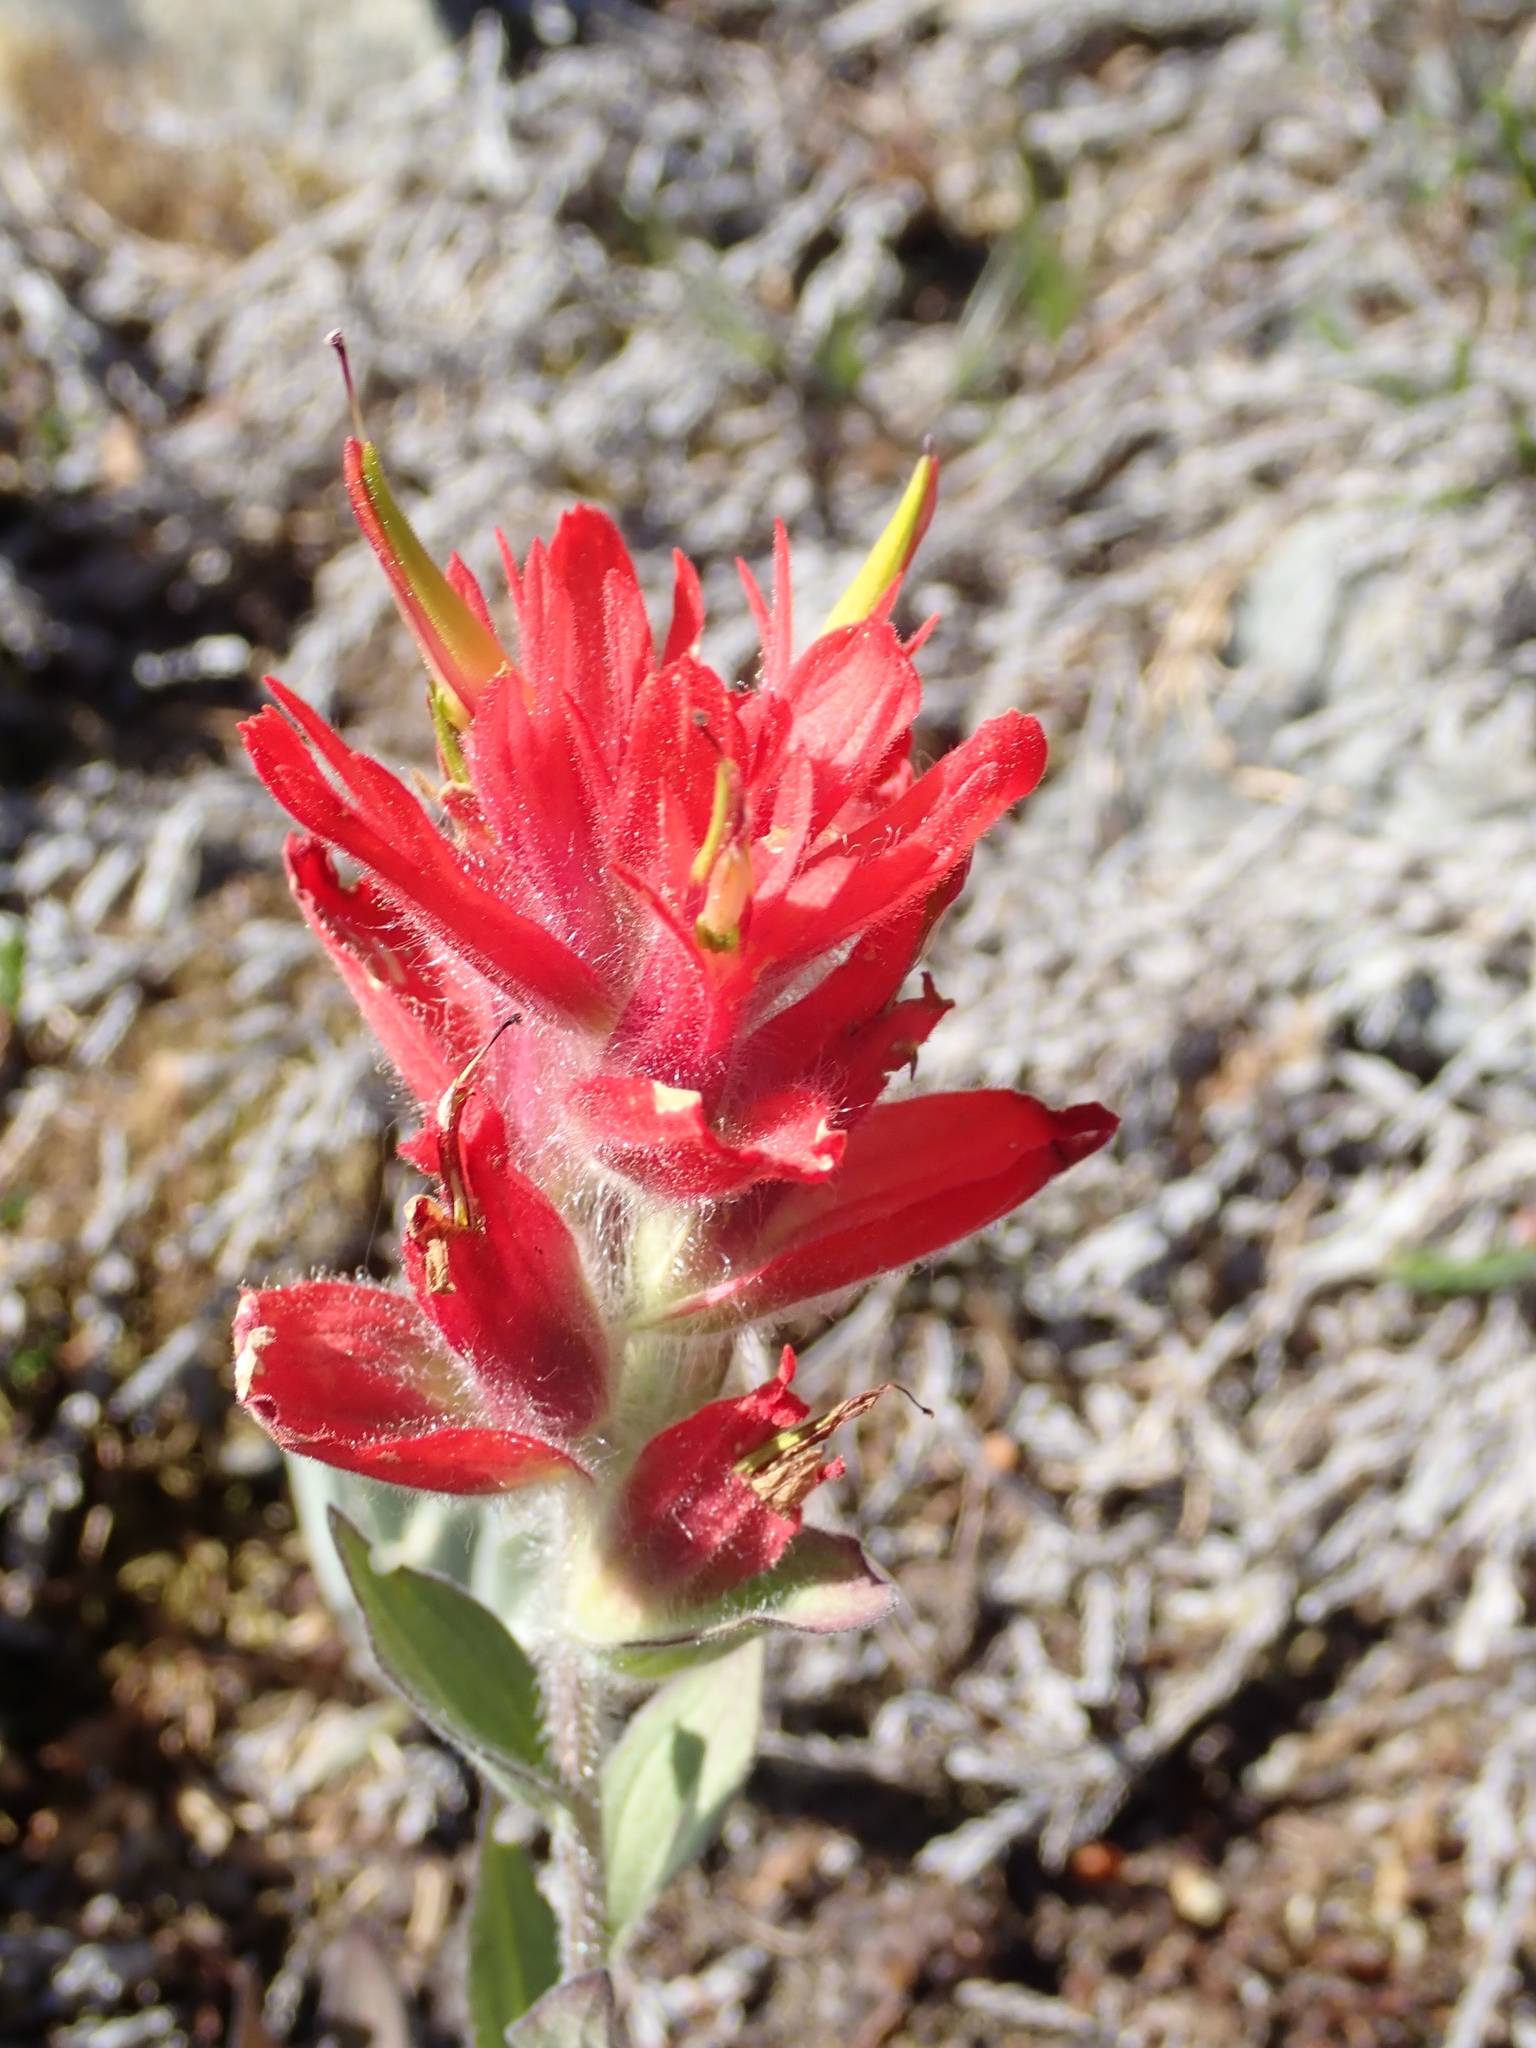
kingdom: Plantae
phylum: Tracheophyta
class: Magnoliopsida
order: Lamiales
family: Orobanchaceae
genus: Castilleja
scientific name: Castilleja elmeri
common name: Elmer's paintbrush
